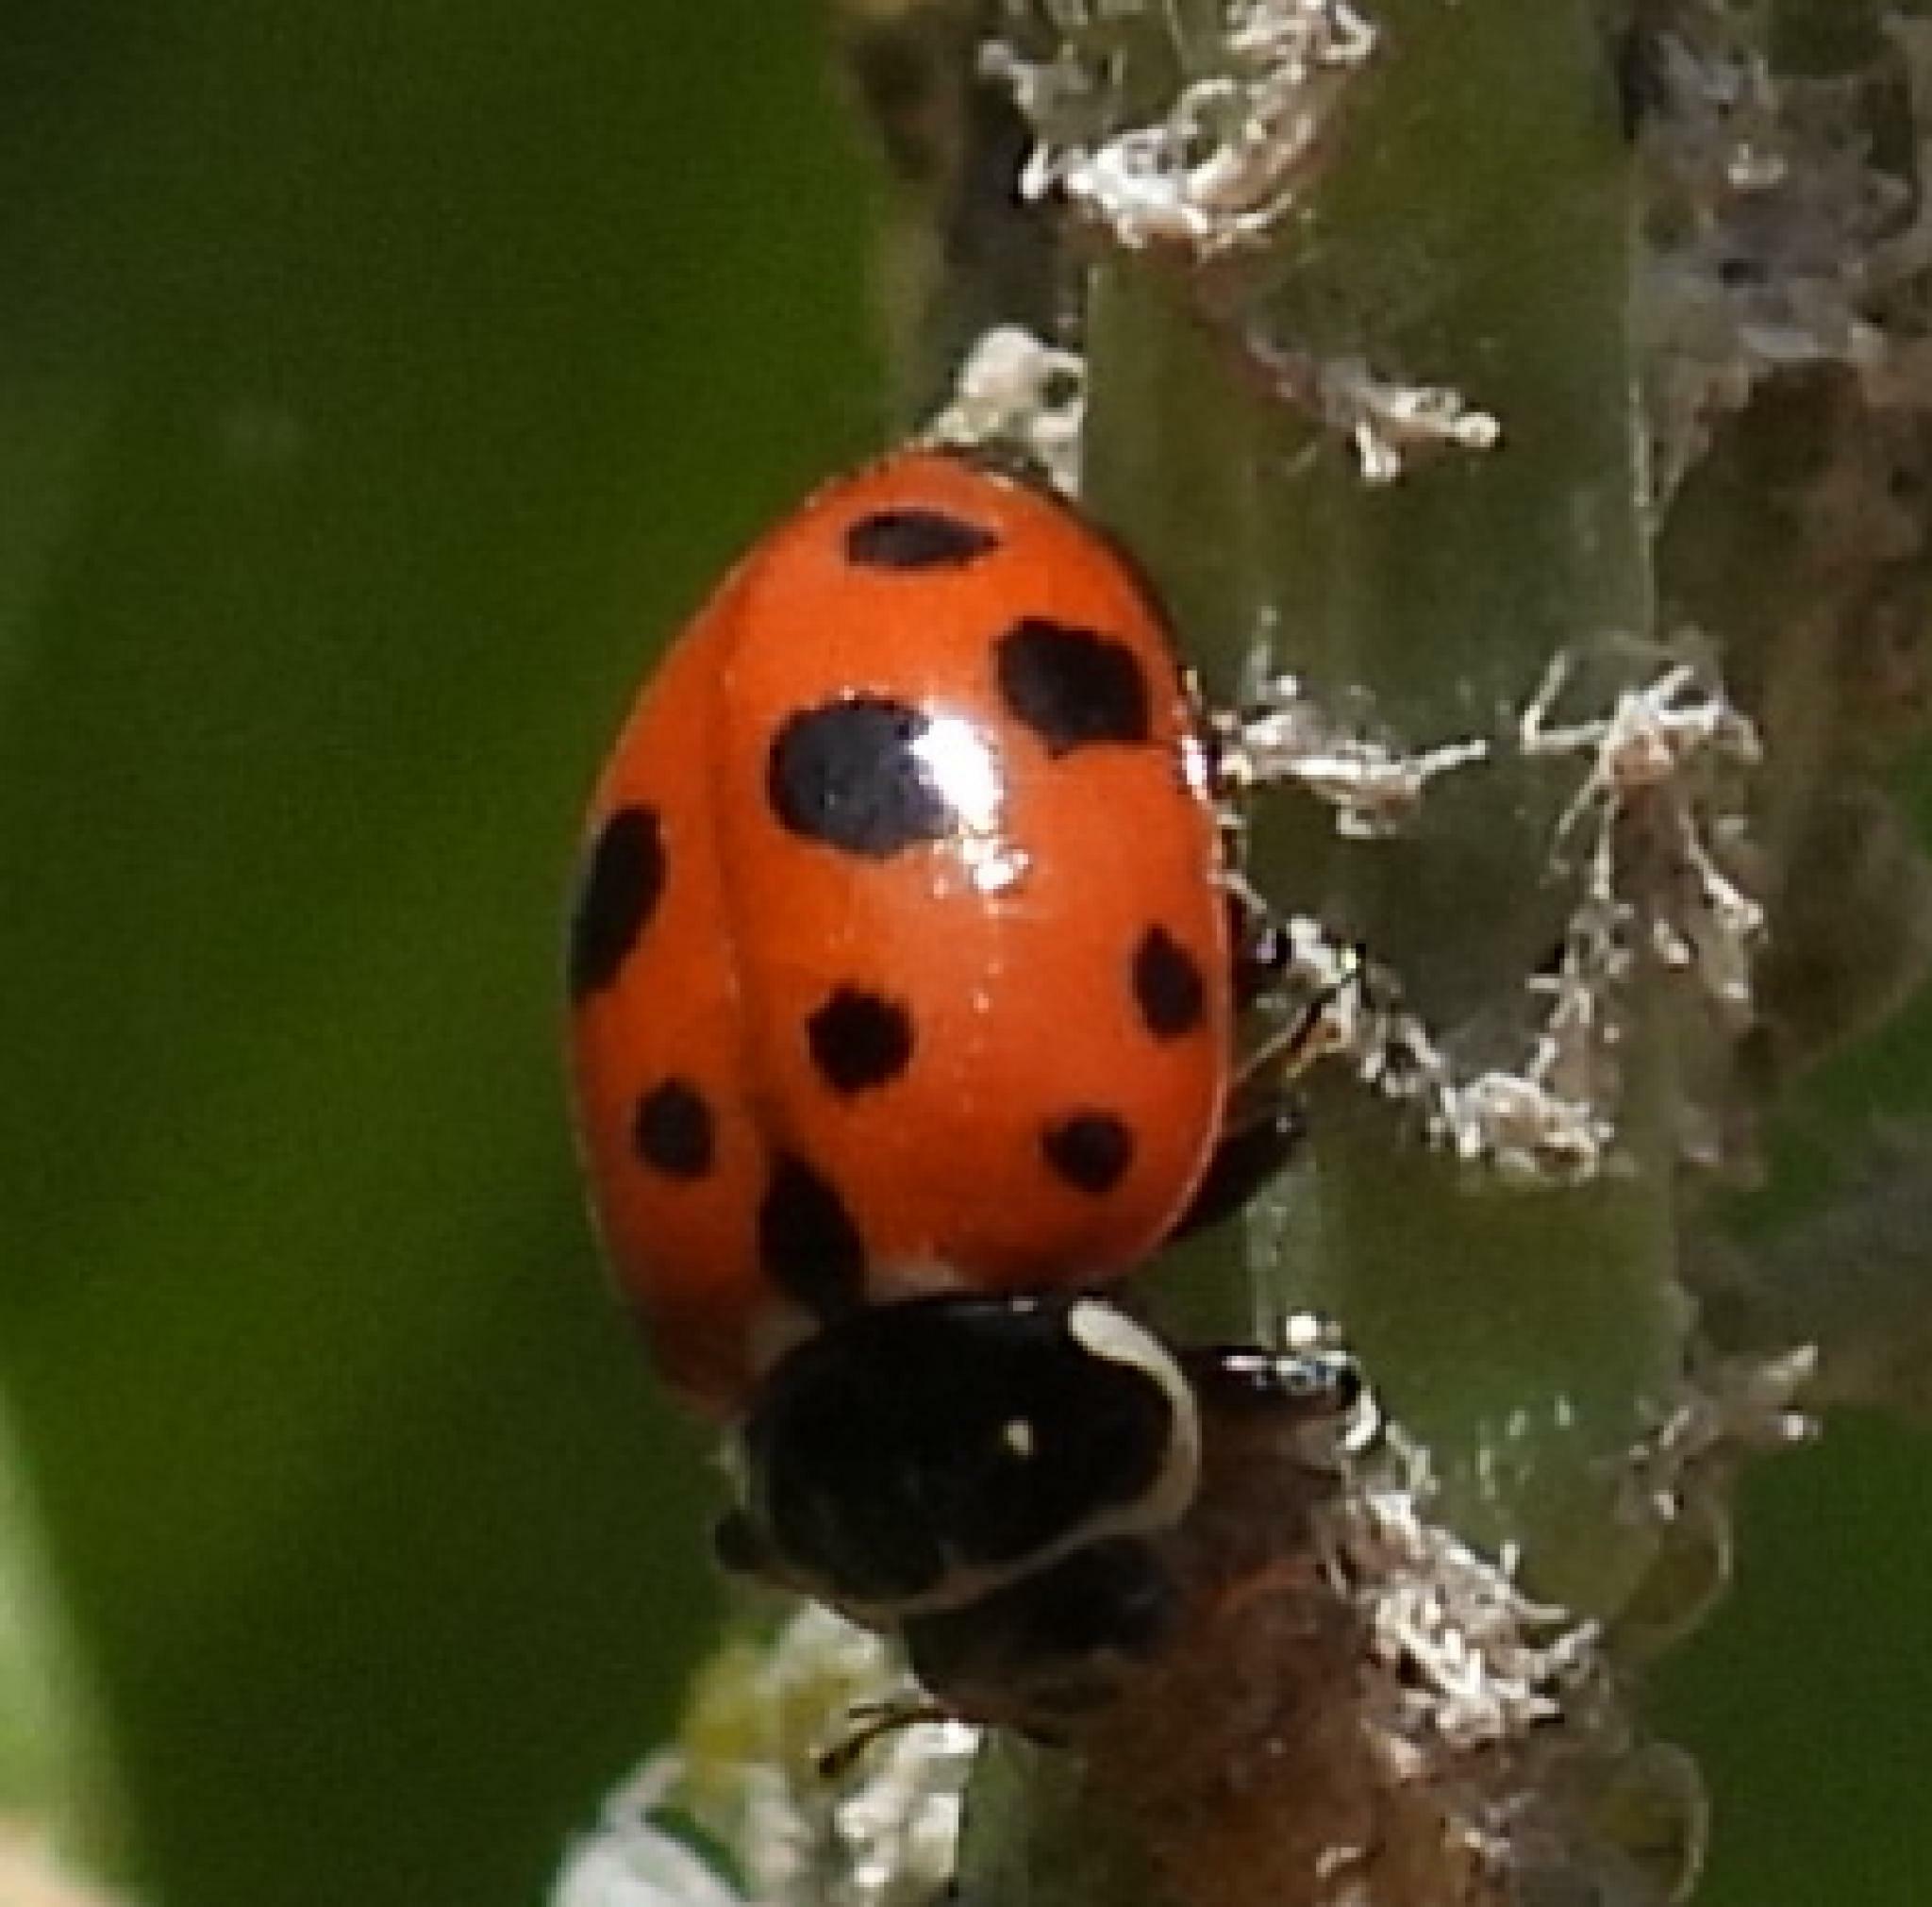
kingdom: Animalia
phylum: Arthropoda
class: Insecta
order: Coleoptera
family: Coccinellidae
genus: Hippodamia
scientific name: Hippodamia variegata
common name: Ladybird beetle
